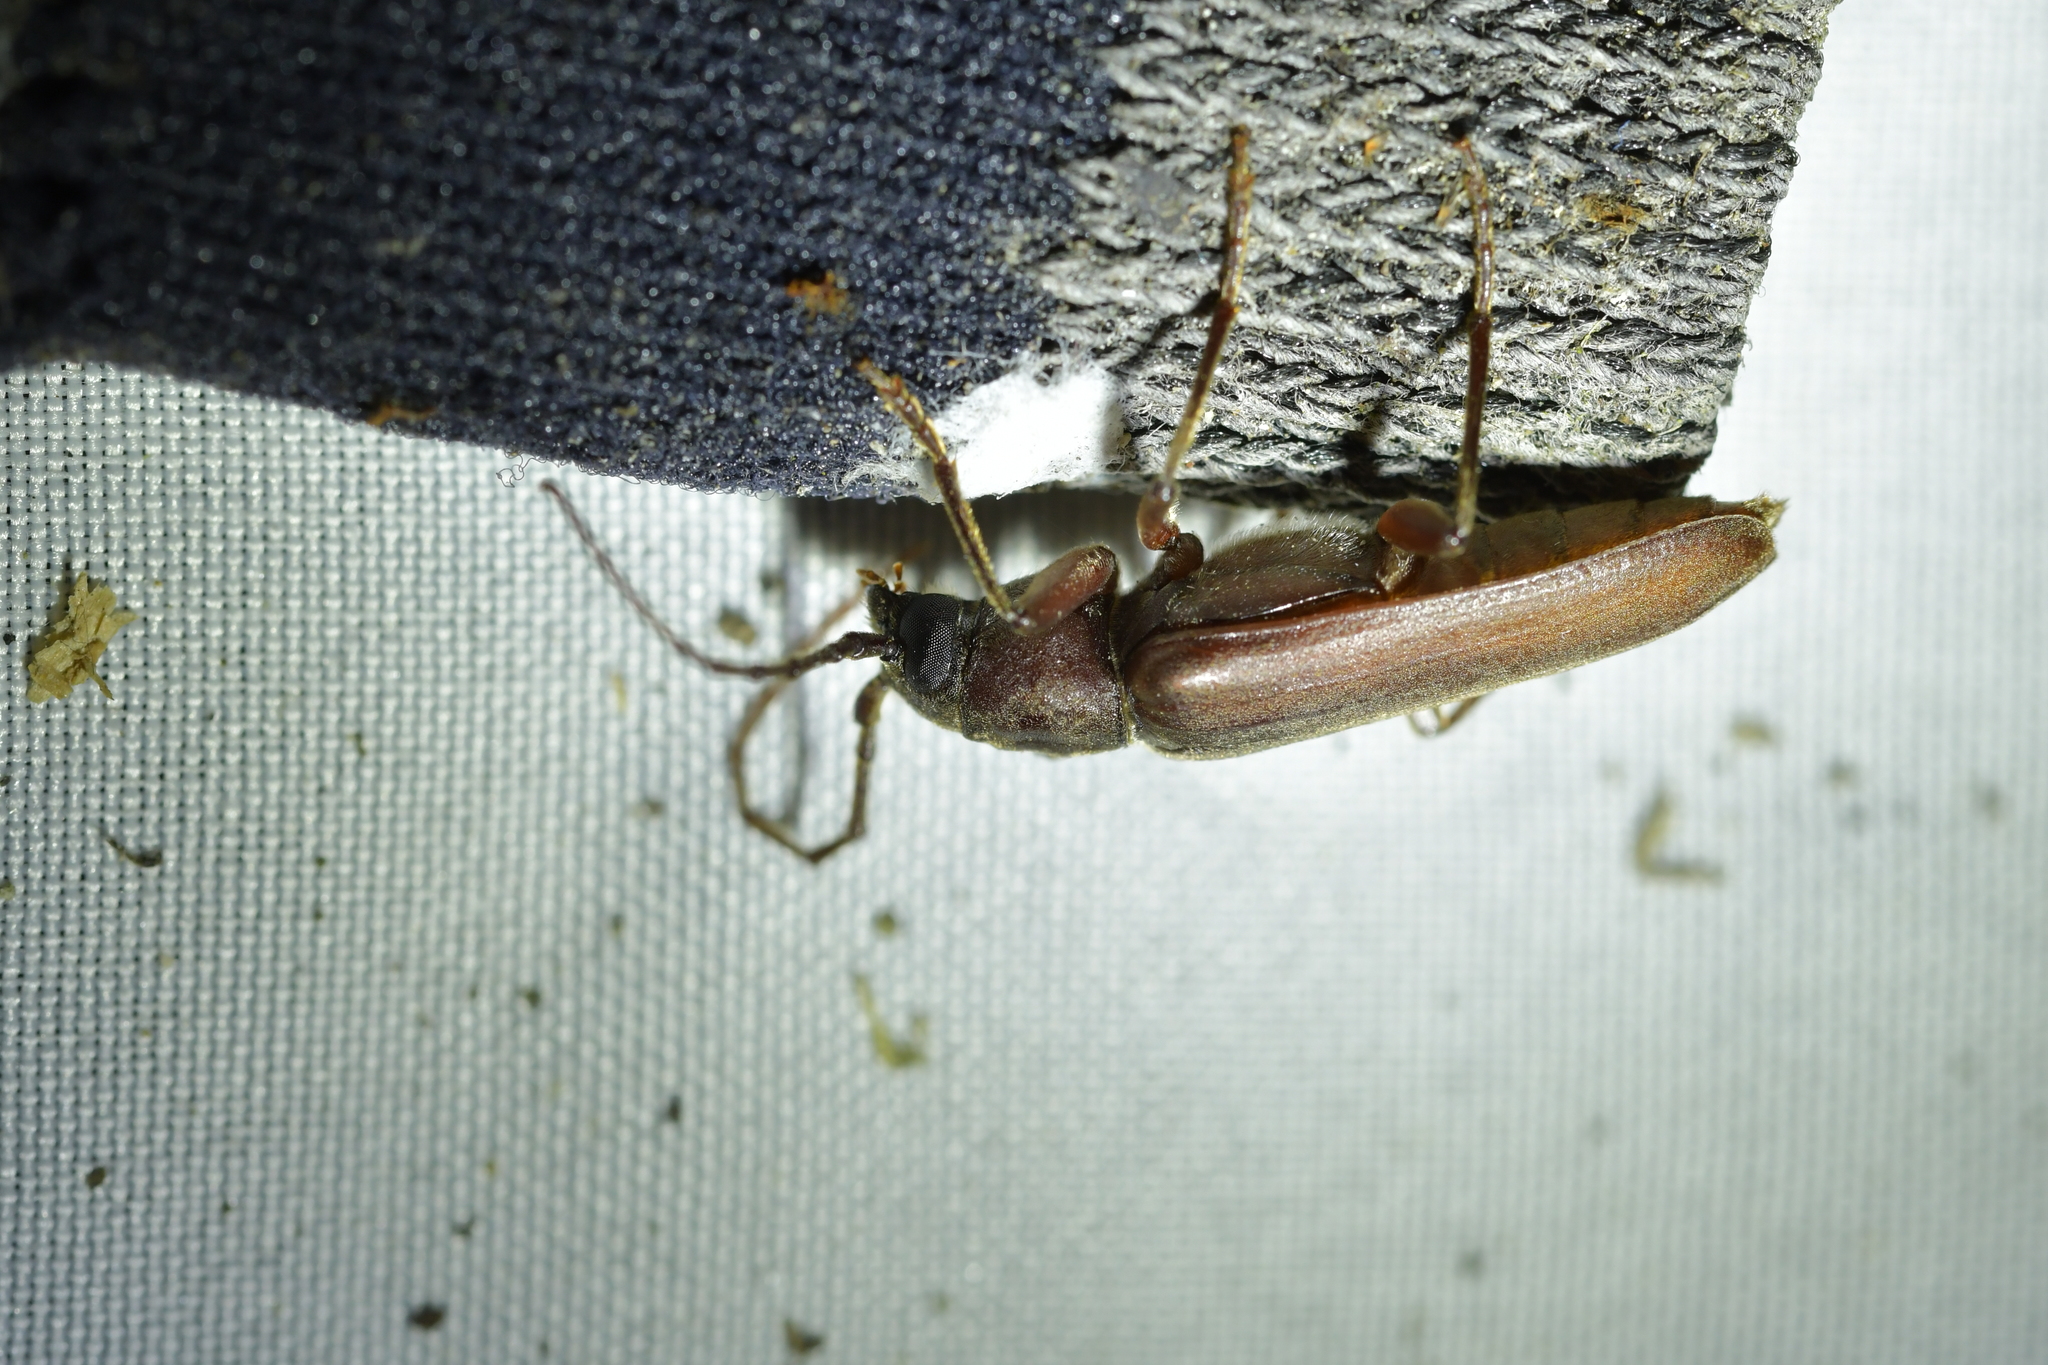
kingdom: Animalia
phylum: Arthropoda
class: Insecta
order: Coleoptera
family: Cerambycidae
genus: Arhopalus
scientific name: Arhopalus ferus
